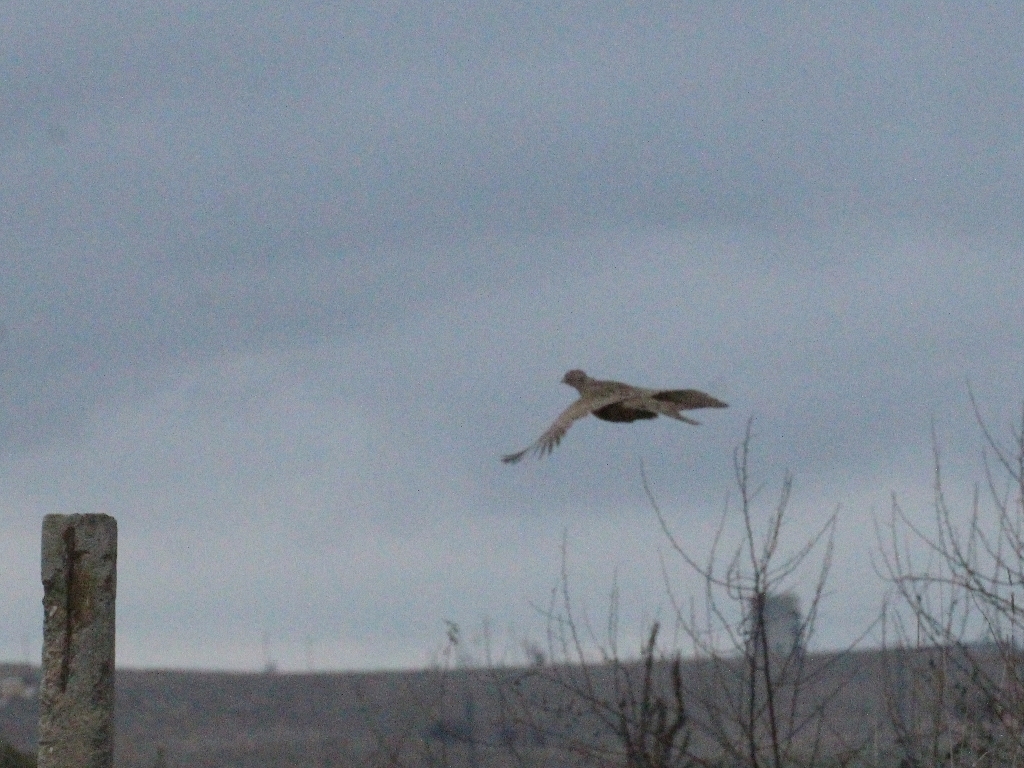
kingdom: Animalia
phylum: Chordata
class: Aves
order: Galliformes
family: Phasianidae
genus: Phasianus
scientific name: Phasianus colchicus
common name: Common pheasant
